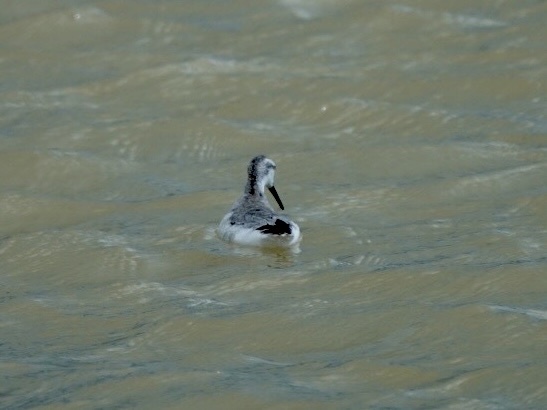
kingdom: Animalia
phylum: Chordata
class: Aves
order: Charadriiformes
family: Scolopacidae
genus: Phalaropus
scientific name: Phalaropus tricolor
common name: Wilson's phalarope
